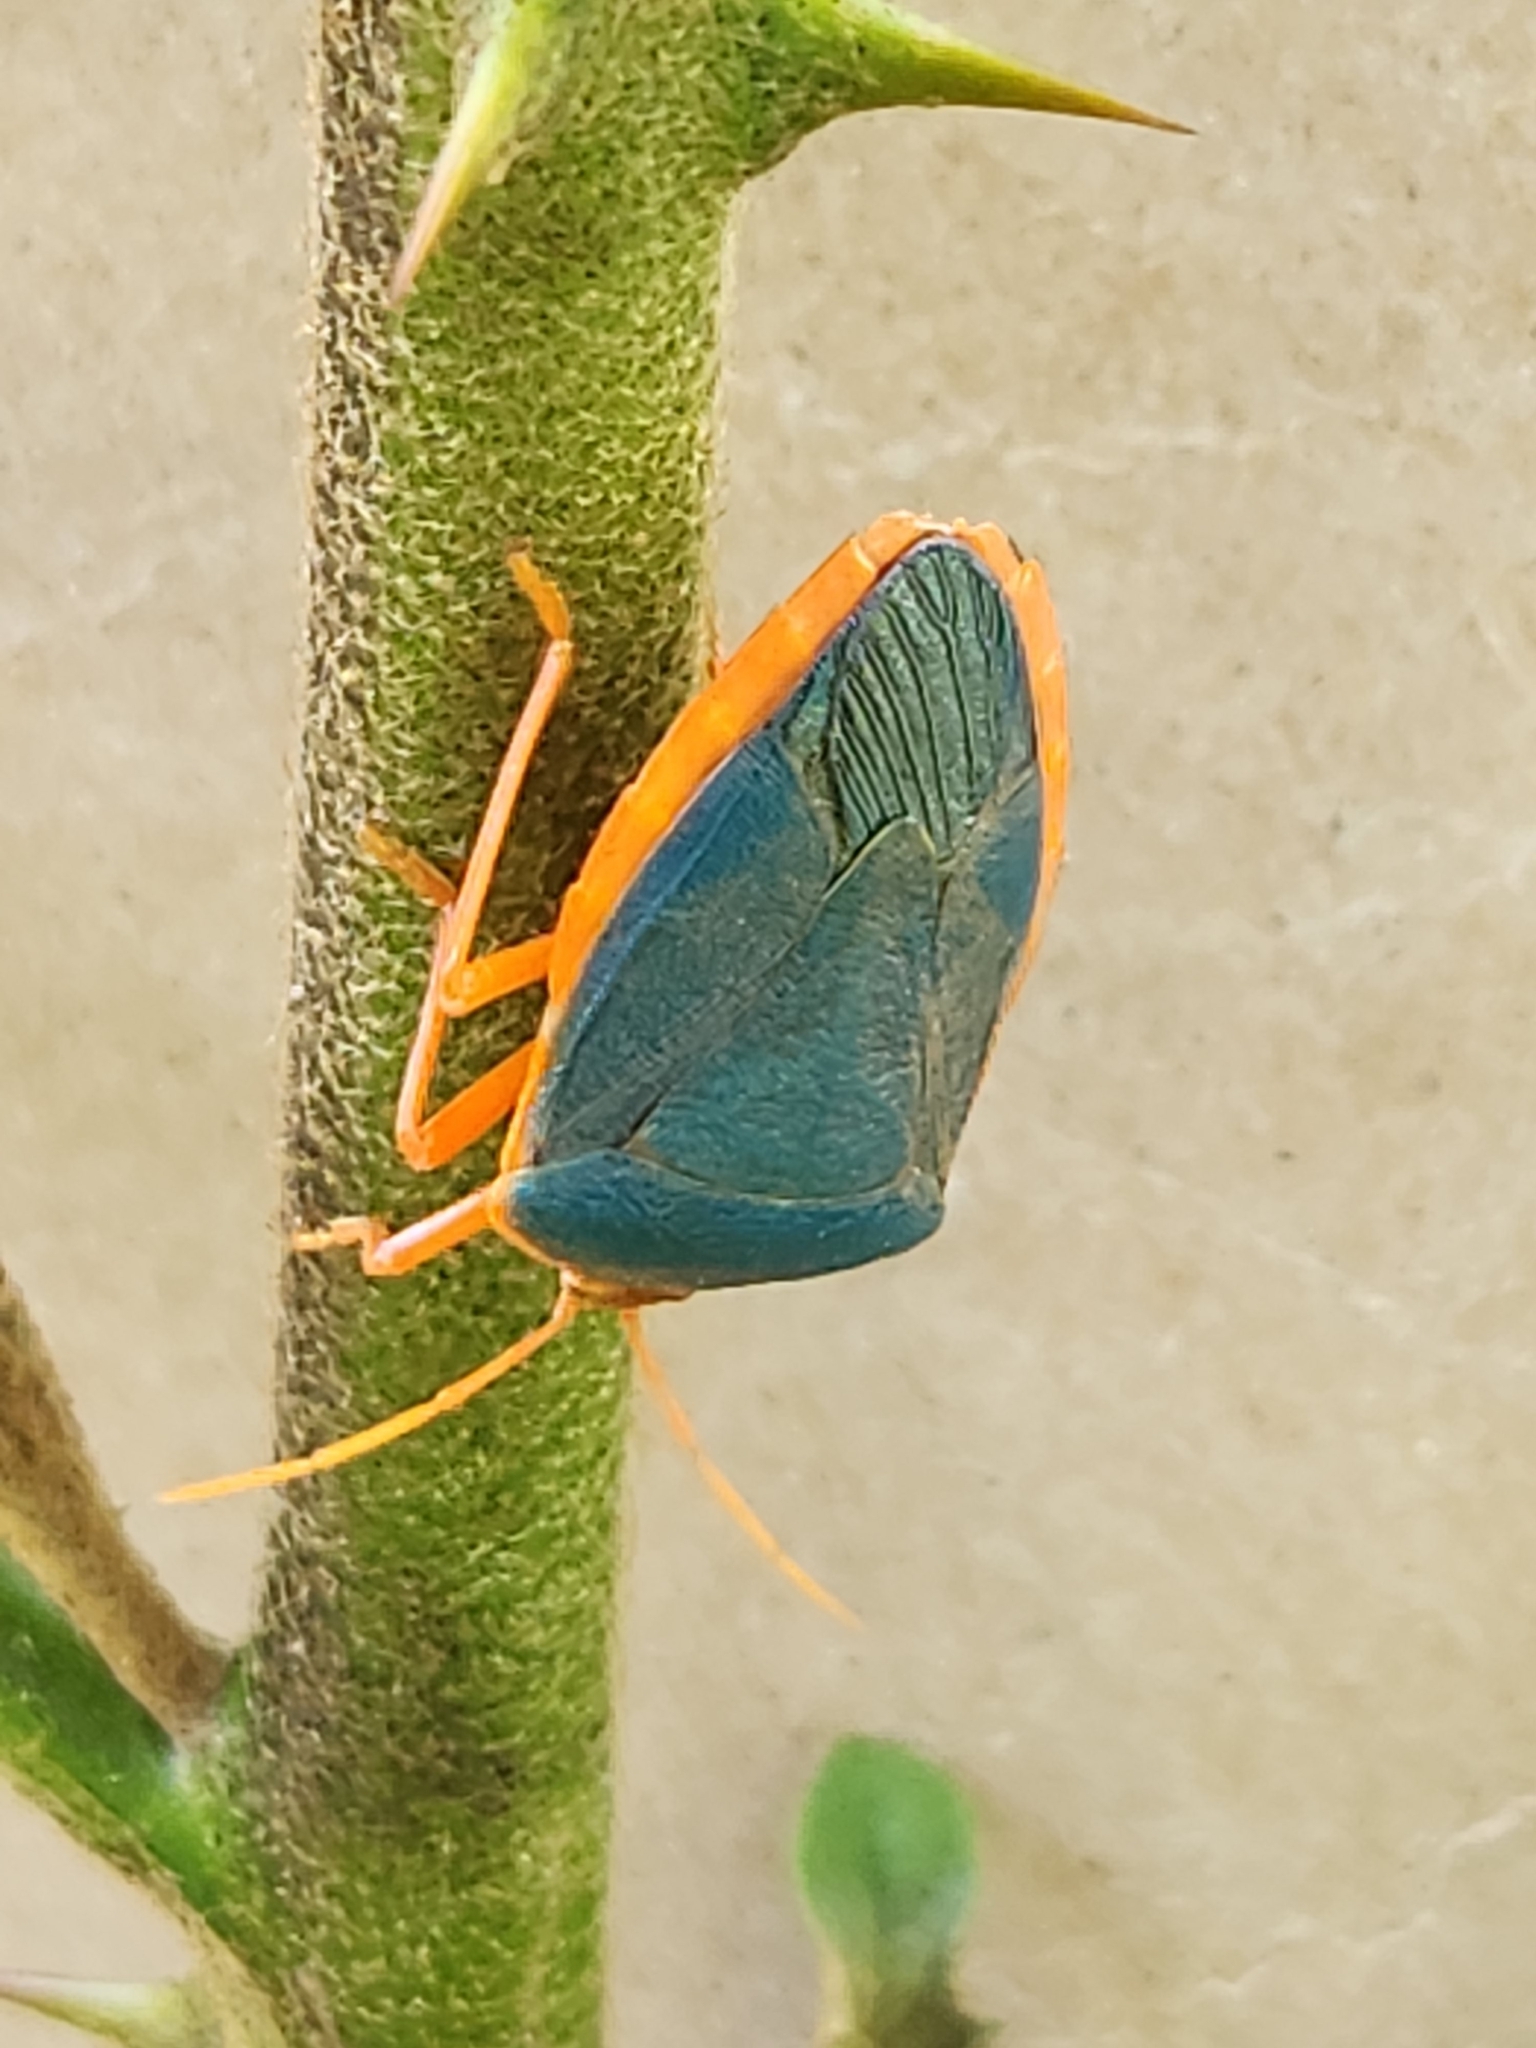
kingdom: Animalia
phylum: Arthropoda
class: Insecta
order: Hemiptera
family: Pentatomidae
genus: Edessa
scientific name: Edessa rufomarginata
